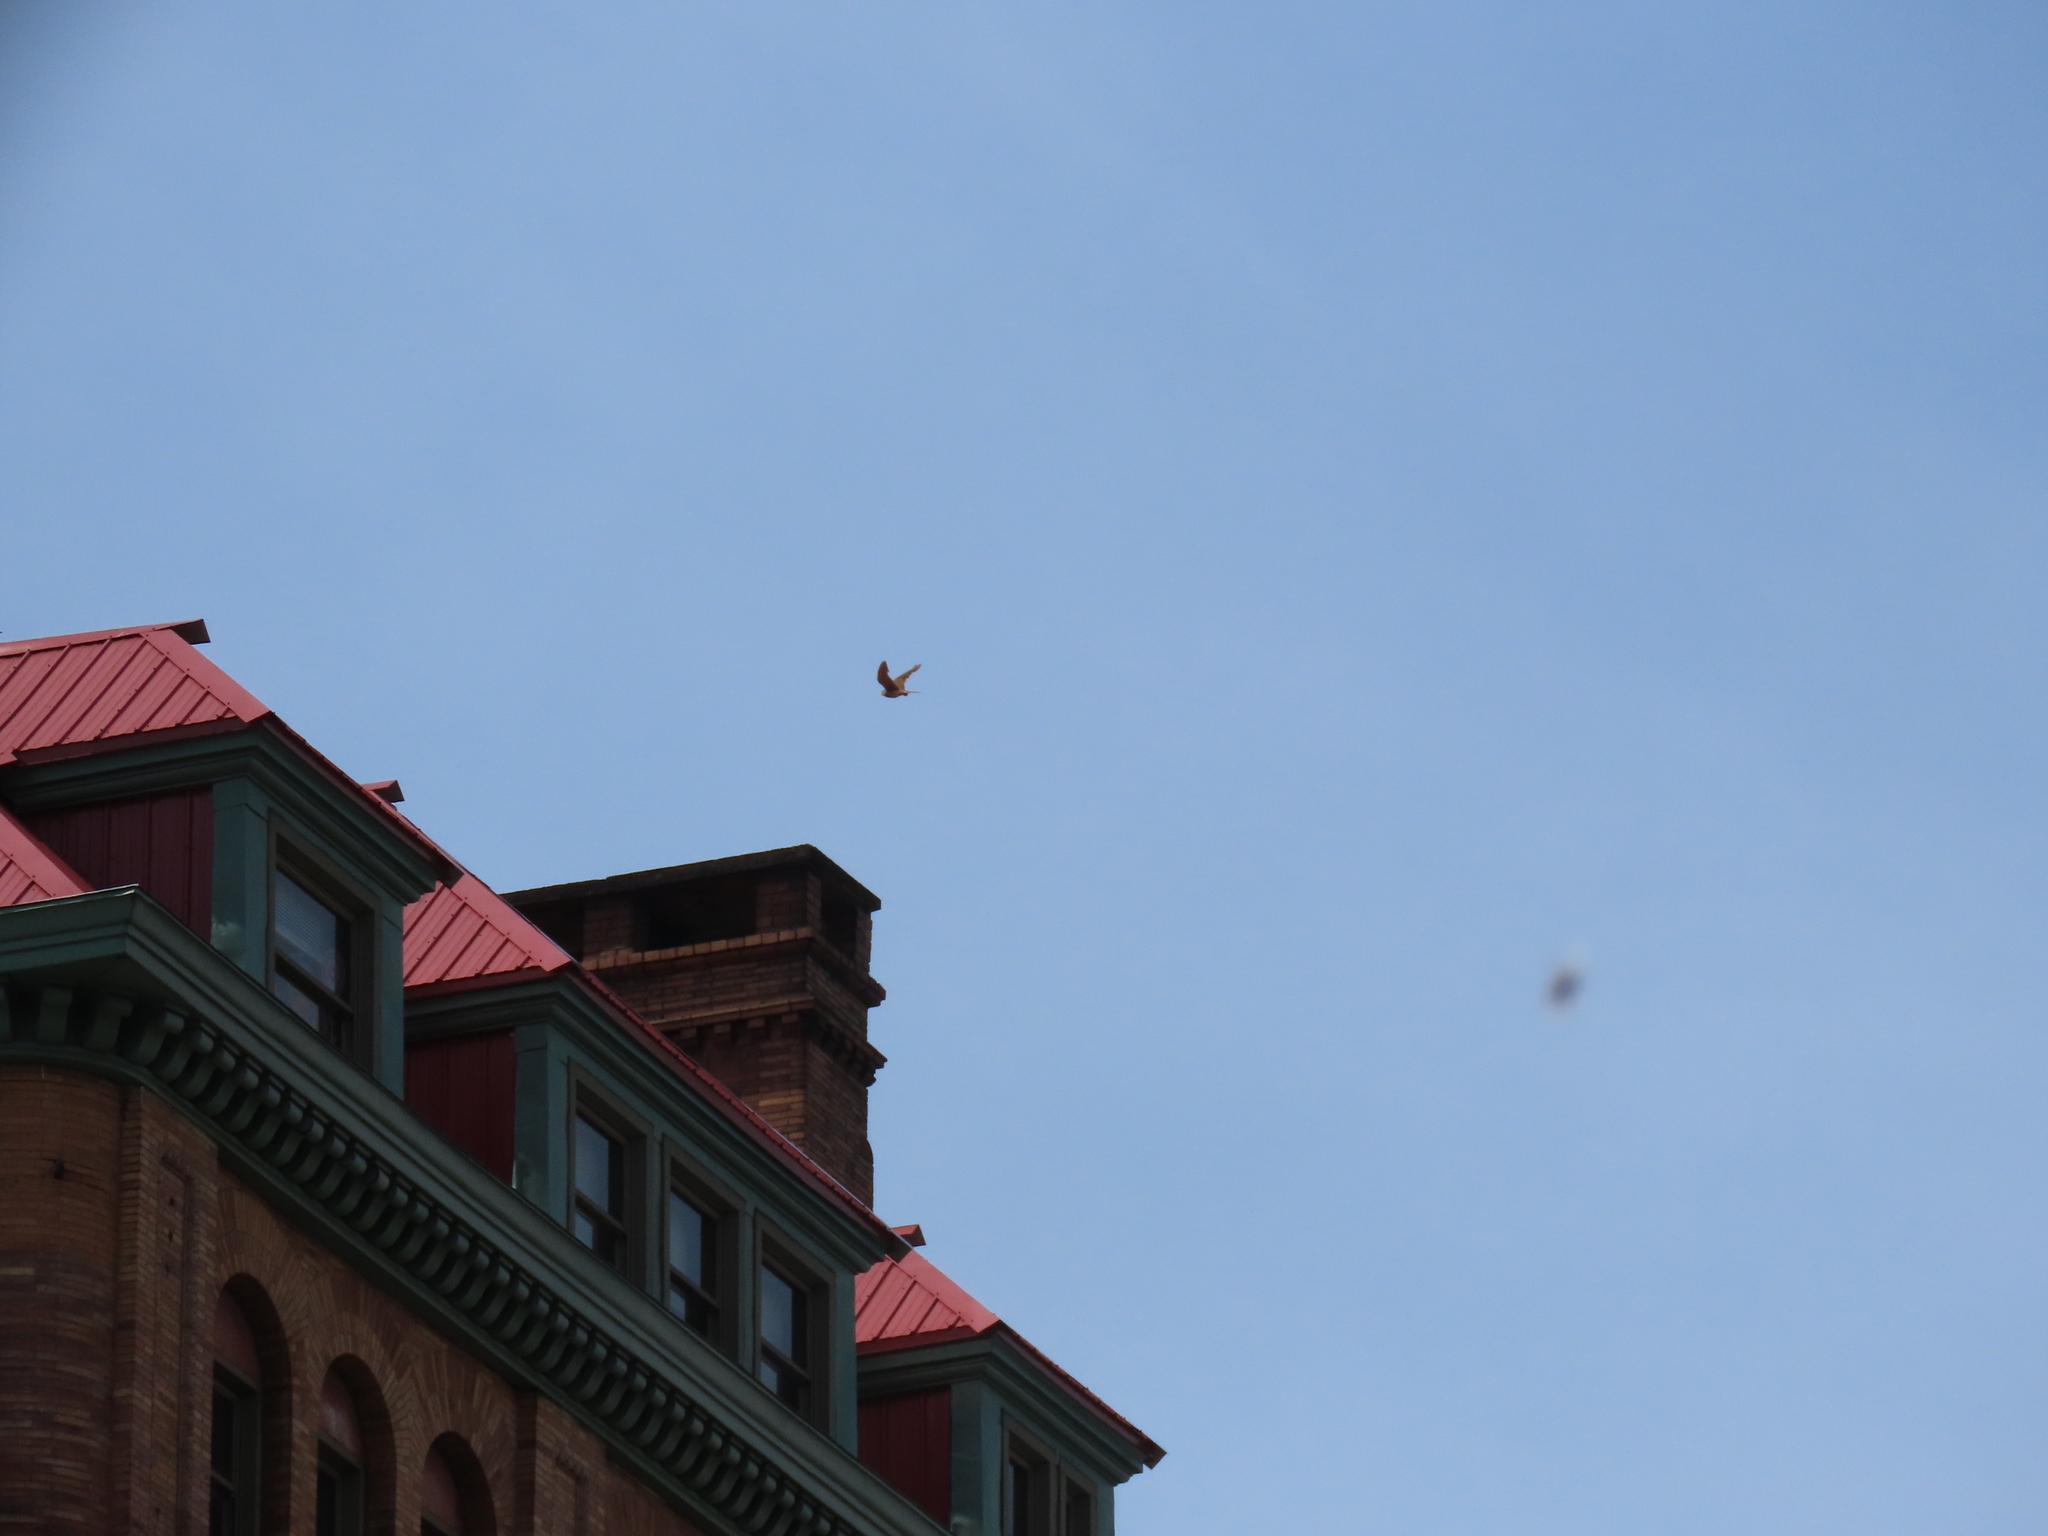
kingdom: Animalia
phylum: Chordata
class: Aves
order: Falconiformes
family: Falconidae
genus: Falco
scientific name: Falco sparverius
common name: American kestrel
